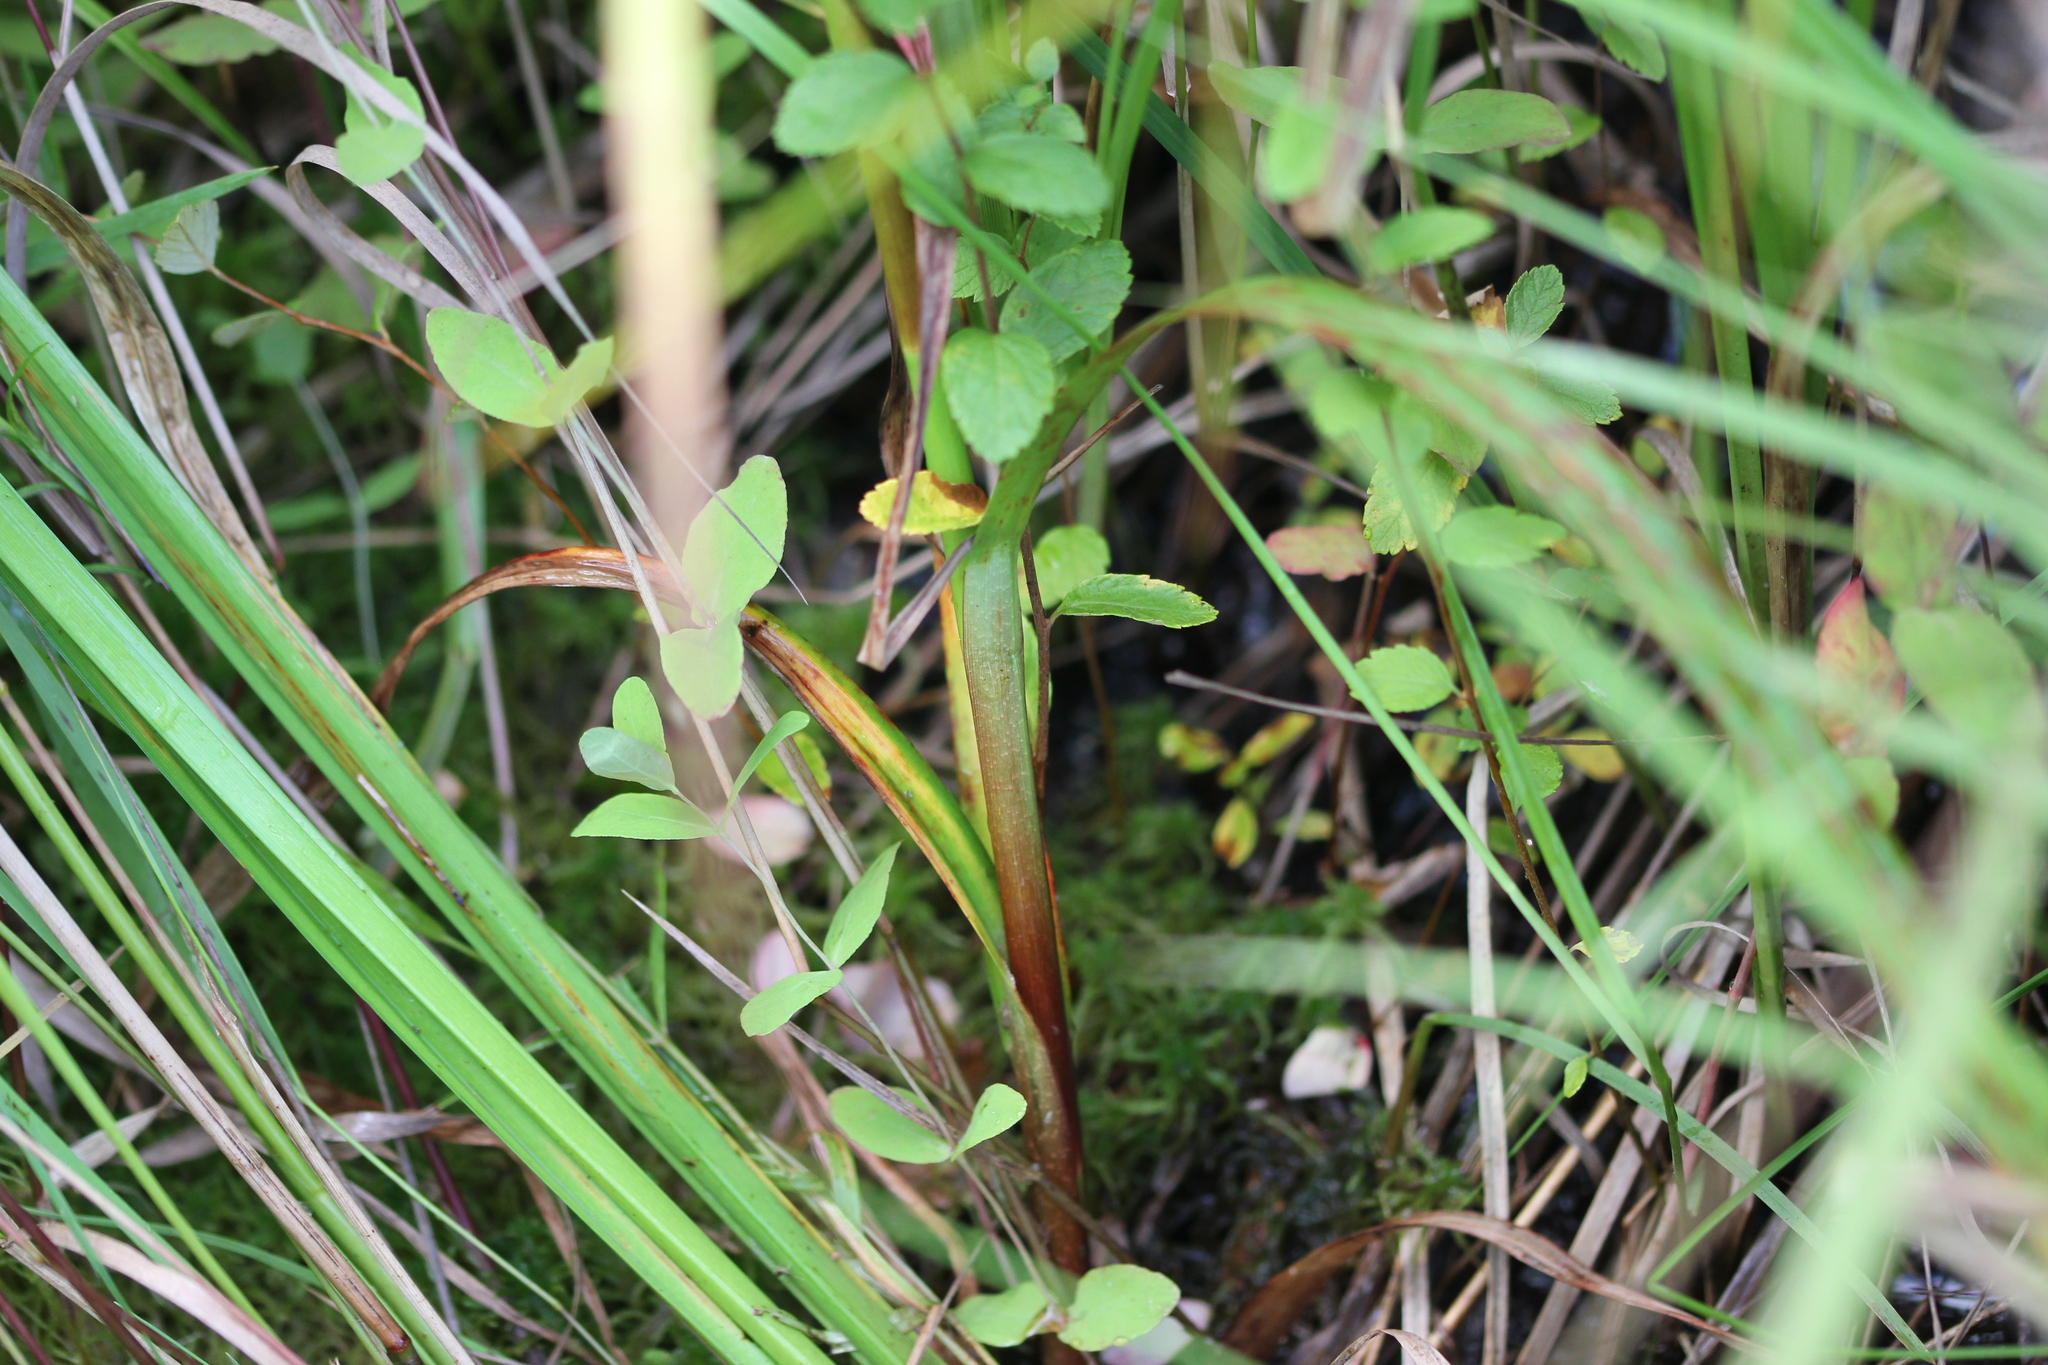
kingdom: Plantae
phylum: Tracheophyta
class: Liliopsida
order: Poales
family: Cyperaceae
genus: Scirpus
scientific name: Scirpus microcarpus
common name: Panicled bulrush
